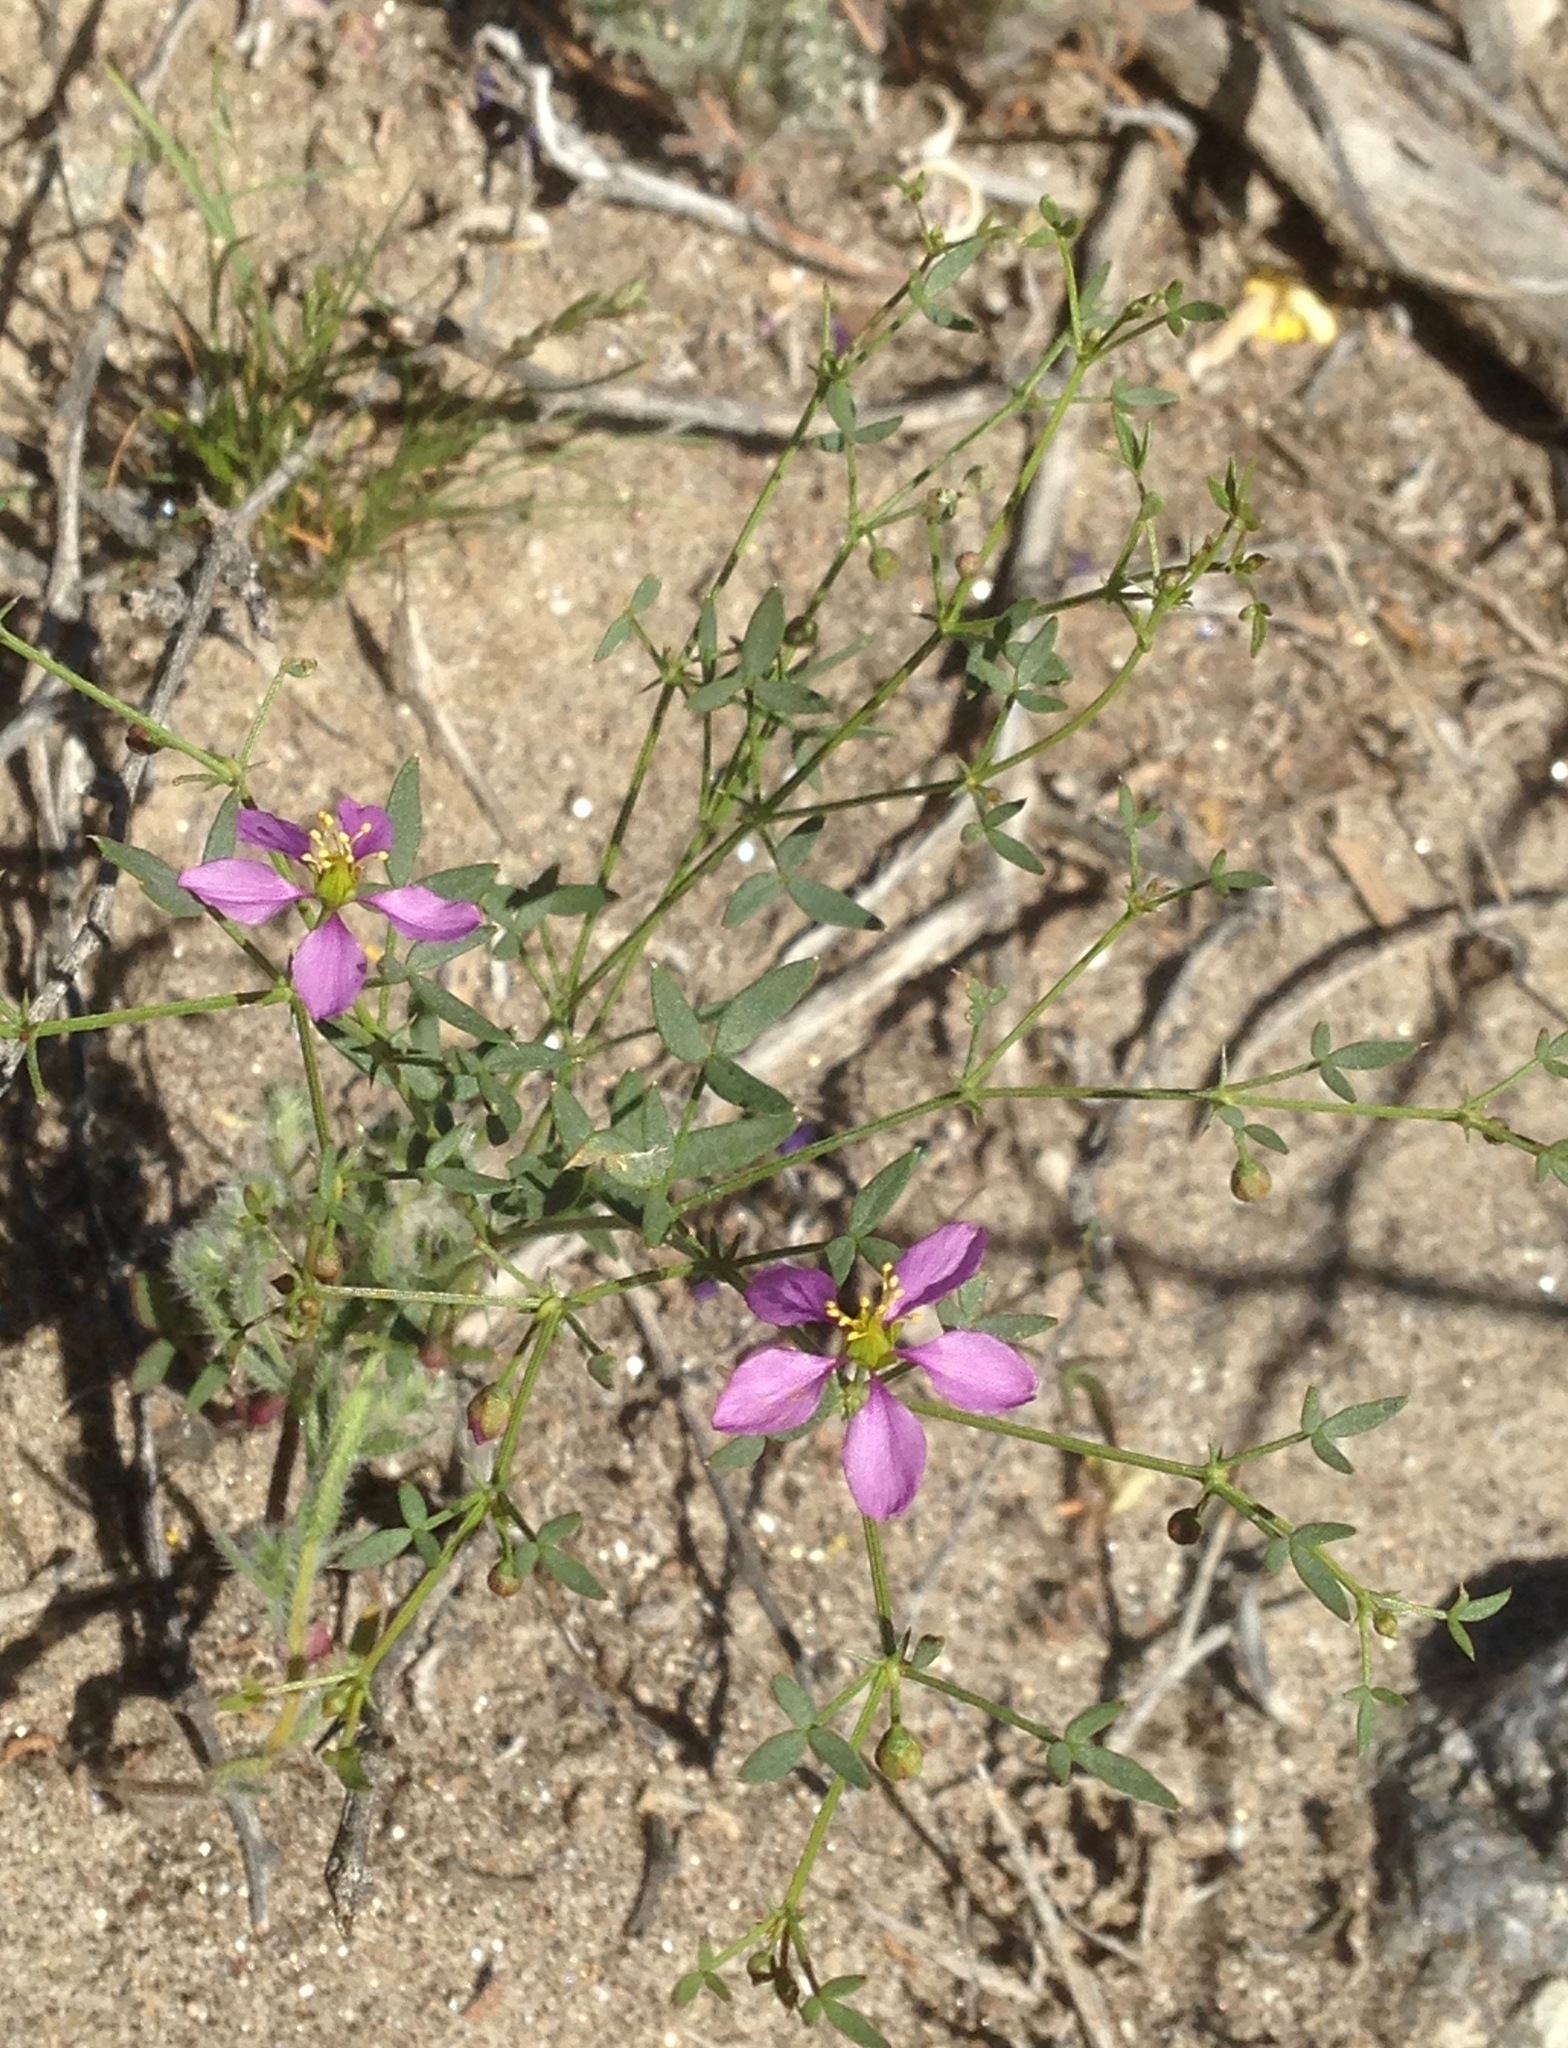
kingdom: Plantae
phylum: Tracheophyta
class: Magnoliopsida
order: Zygophyllales
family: Zygophyllaceae
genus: Fagonia
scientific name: Fagonia laevis
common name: California fagonbush
